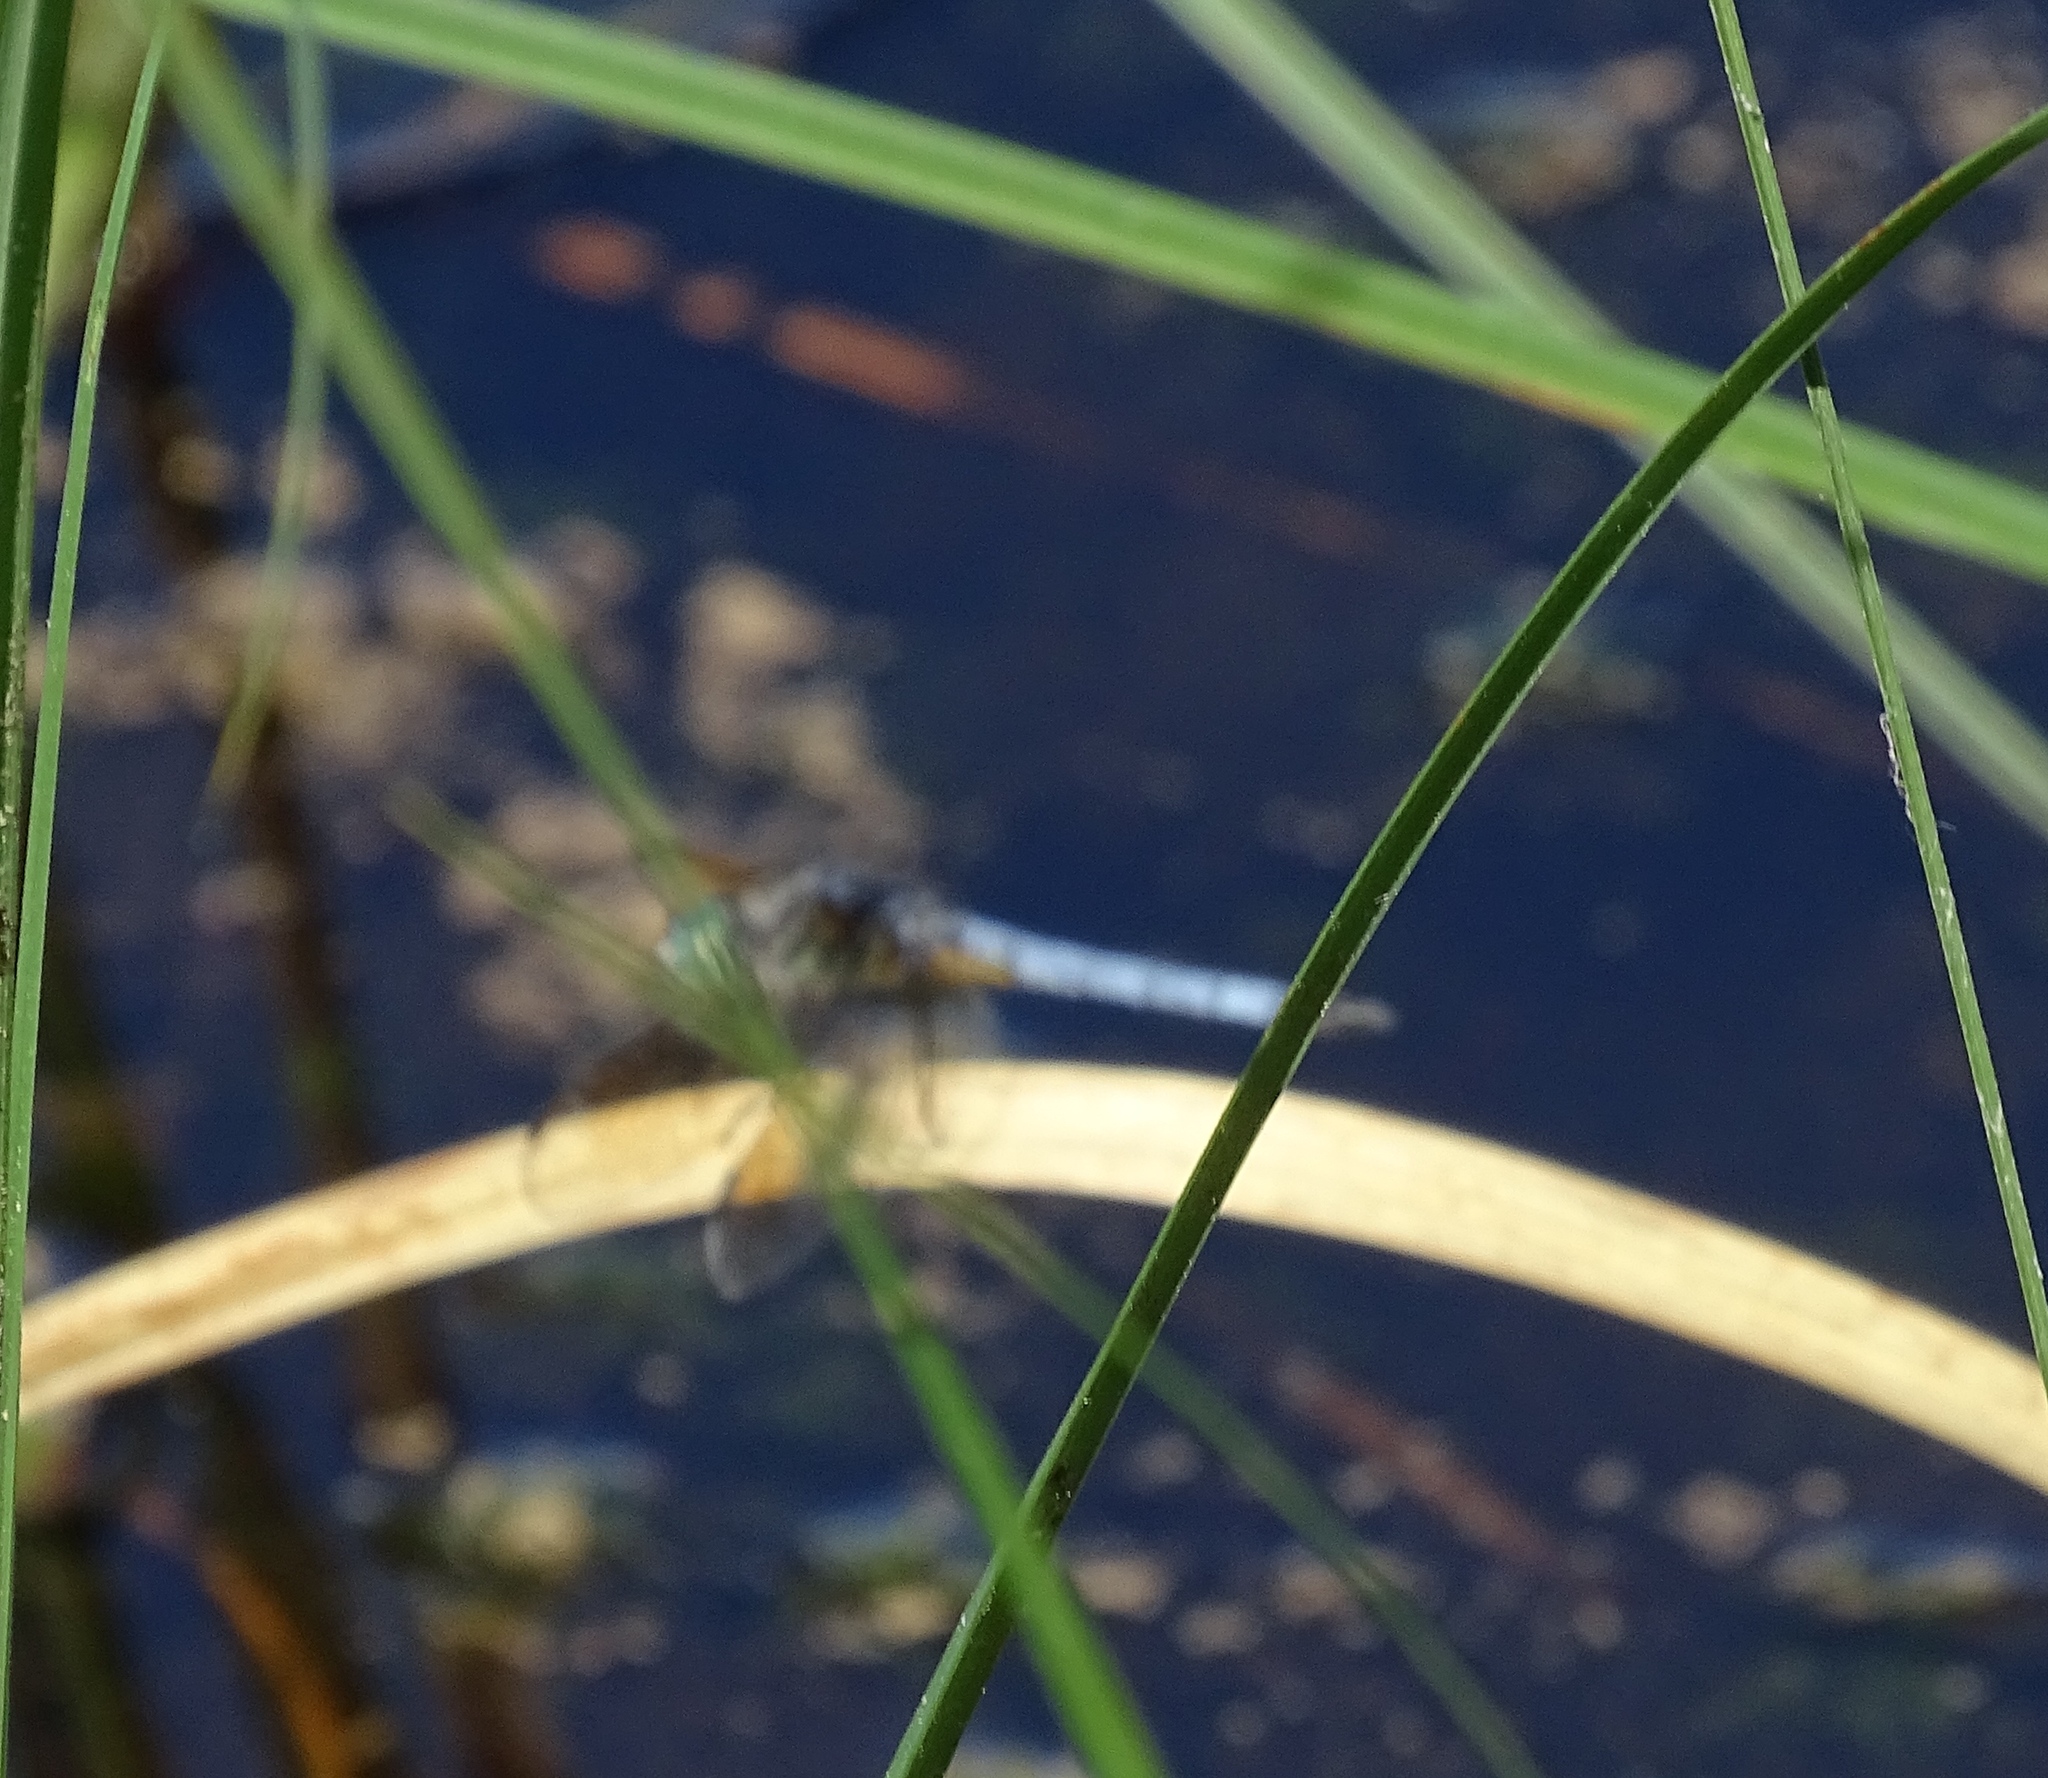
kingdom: Animalia
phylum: Arthropoda
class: Insecta
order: Odonata
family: Libellulidae
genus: Pachydiplax
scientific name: Pachydiplax longipennis
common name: Blue dasher
